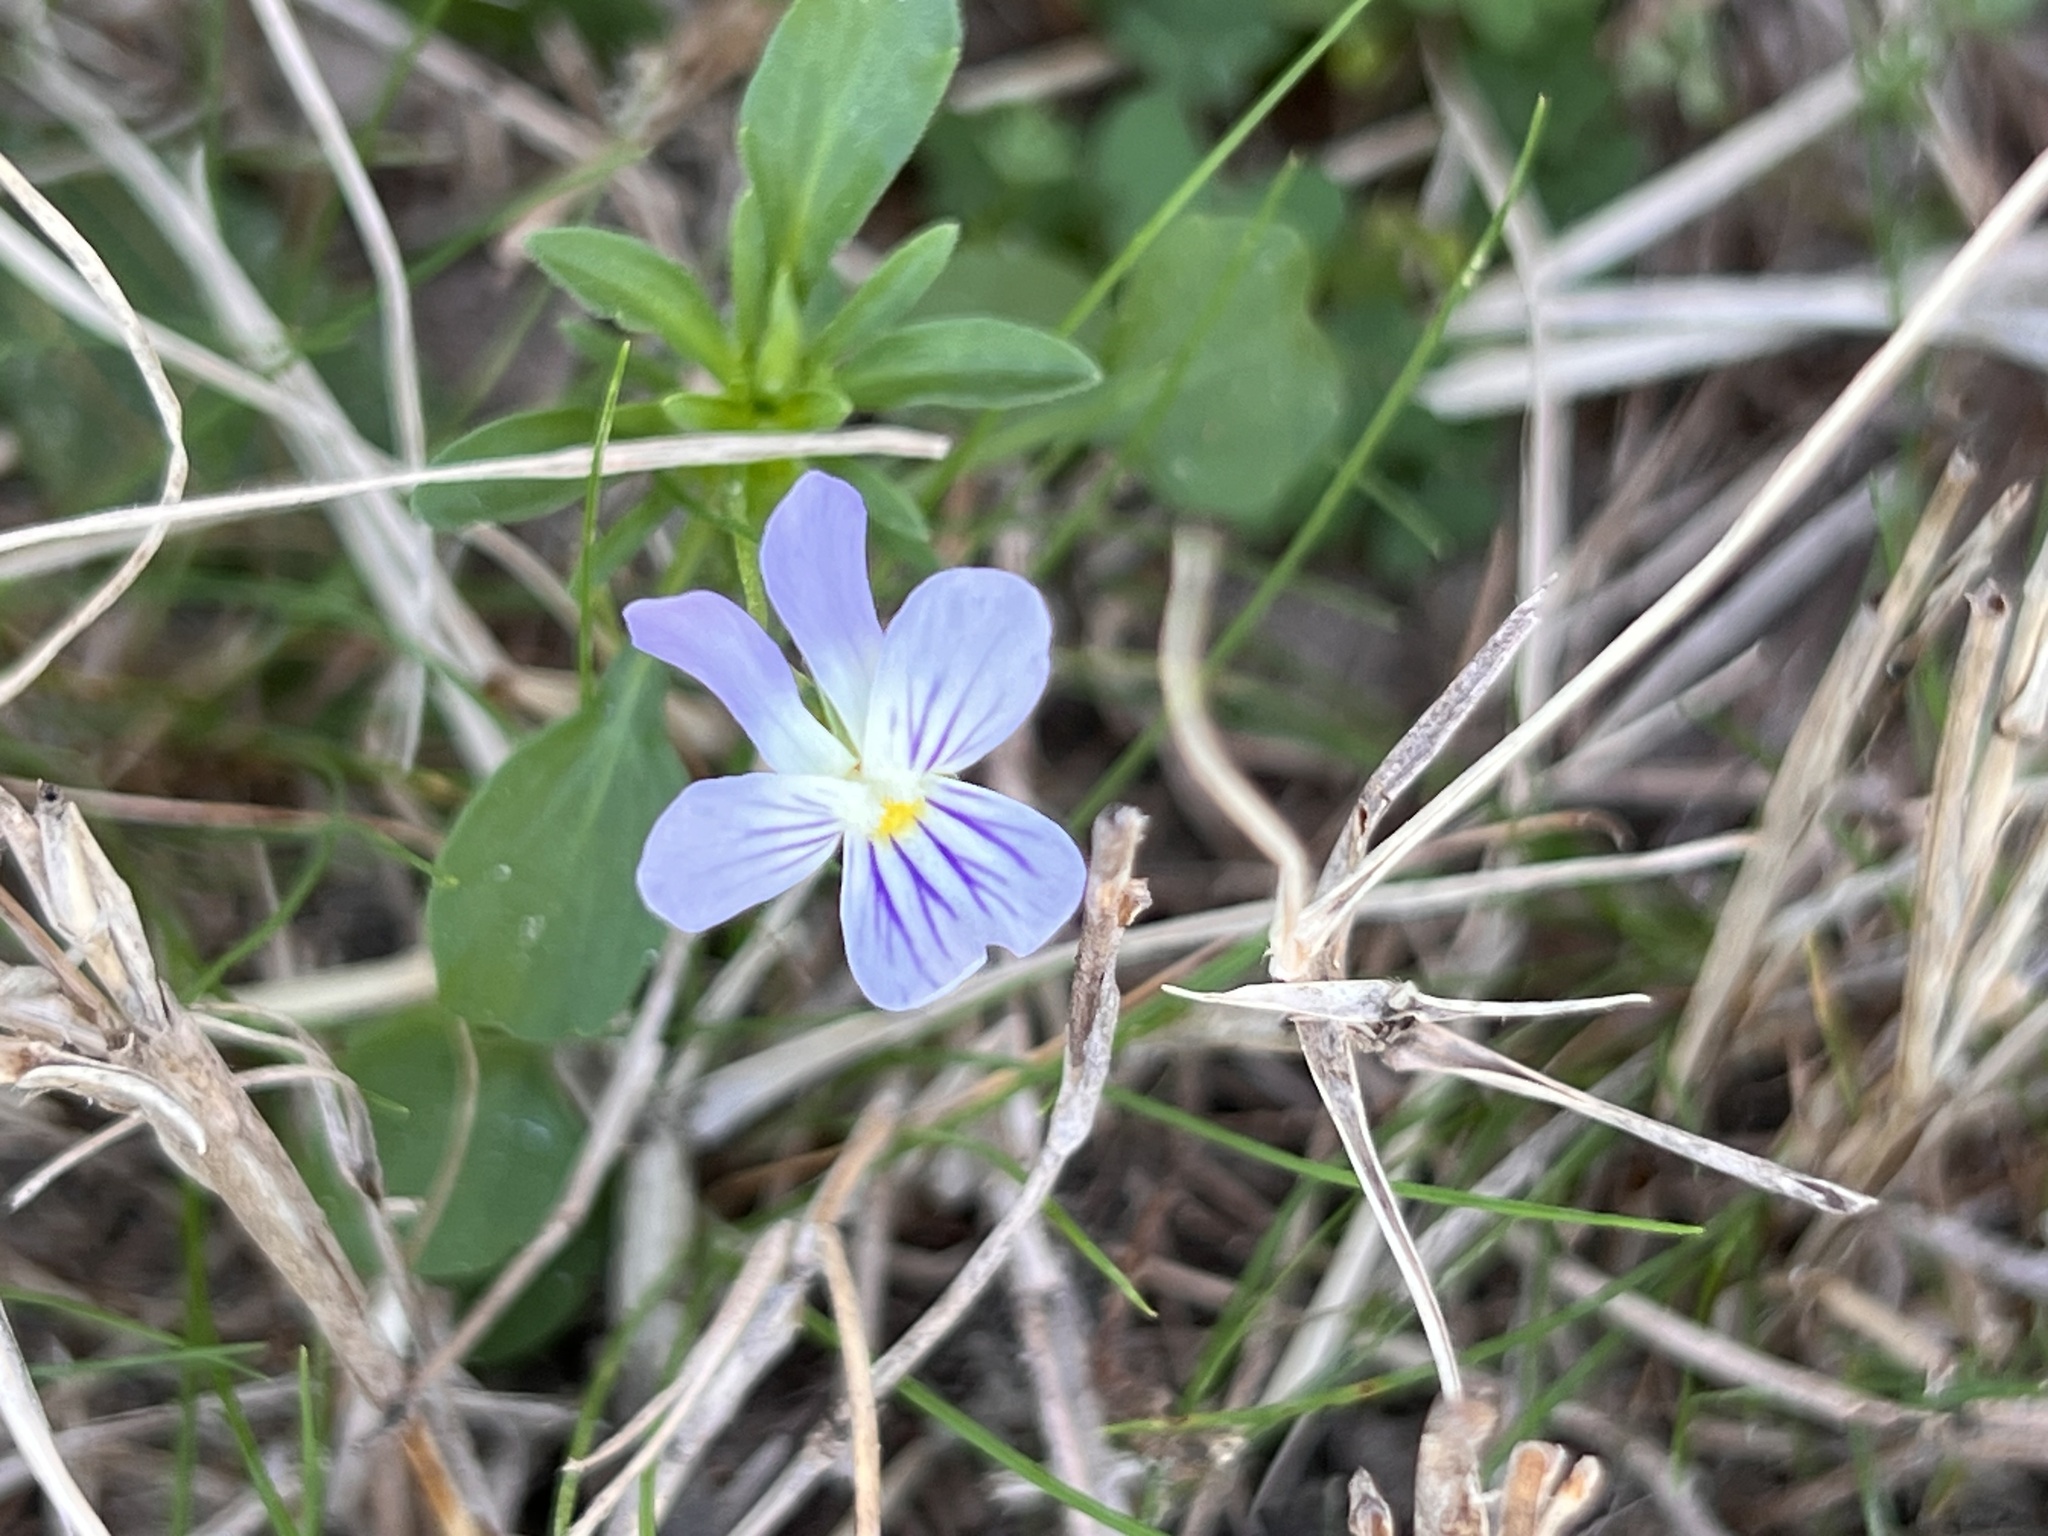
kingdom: Plantae
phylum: Tracheophyta
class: Magnoliopsida
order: Malpighiales
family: Violaceae
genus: Viola
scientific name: Viola rafinesquei
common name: American field pansy
